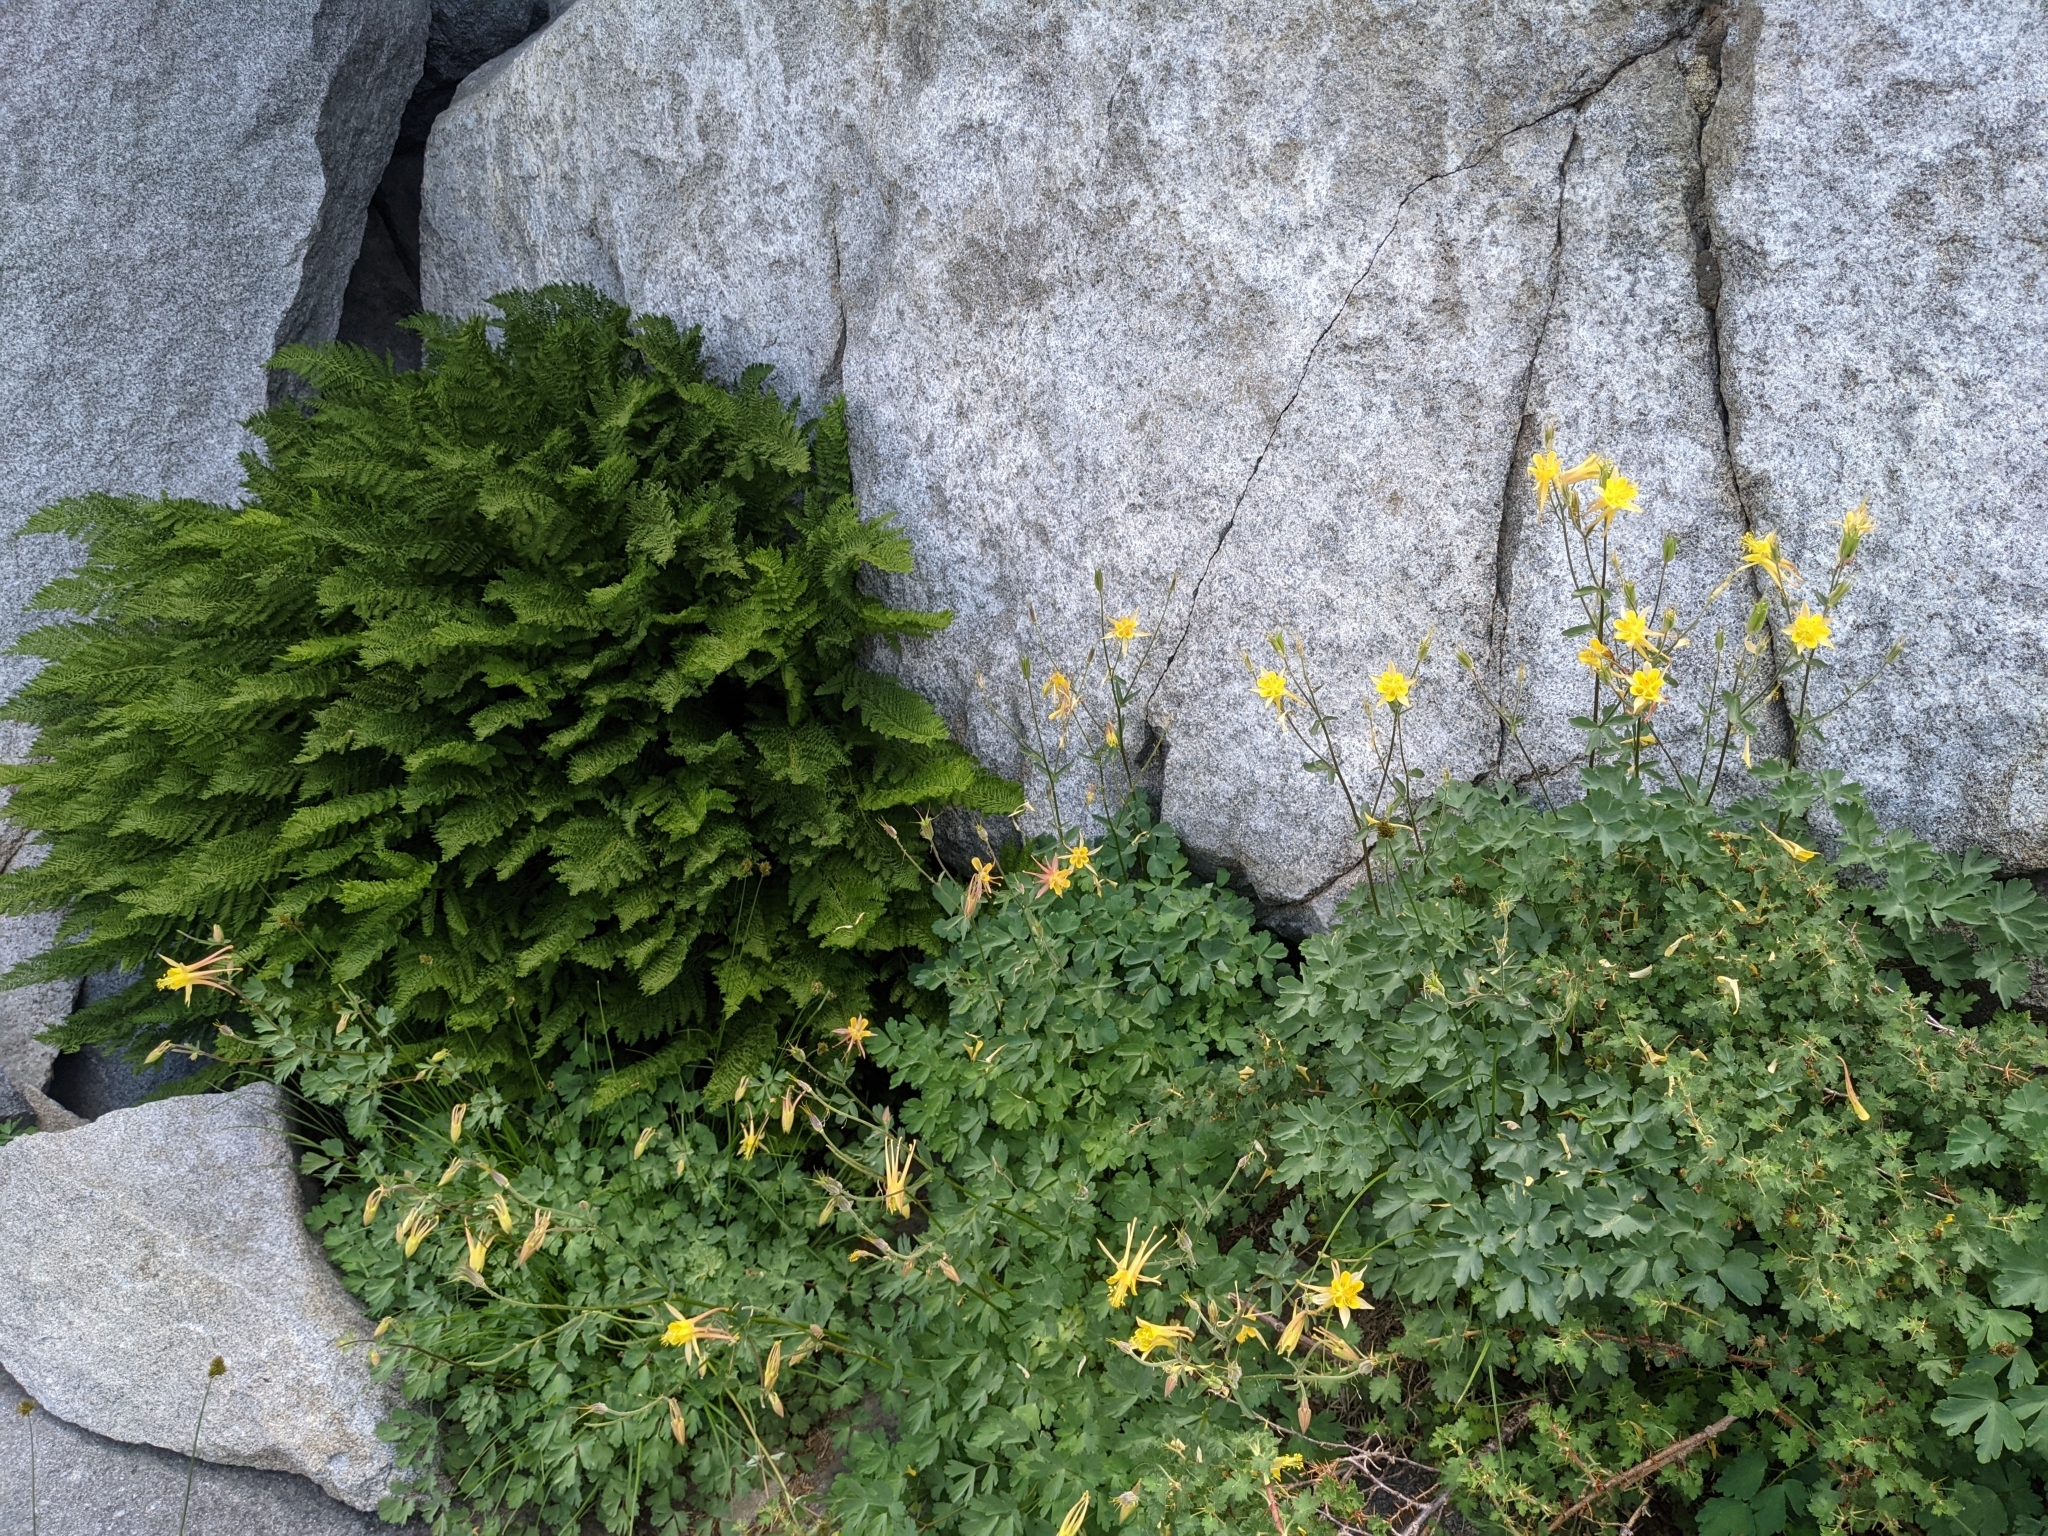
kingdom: Plantae
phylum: Tracheophyta
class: Magnoliopsida
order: Ranunculales
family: Ranunculaceae
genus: Aquilegia
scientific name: Aquilegia pubescens
